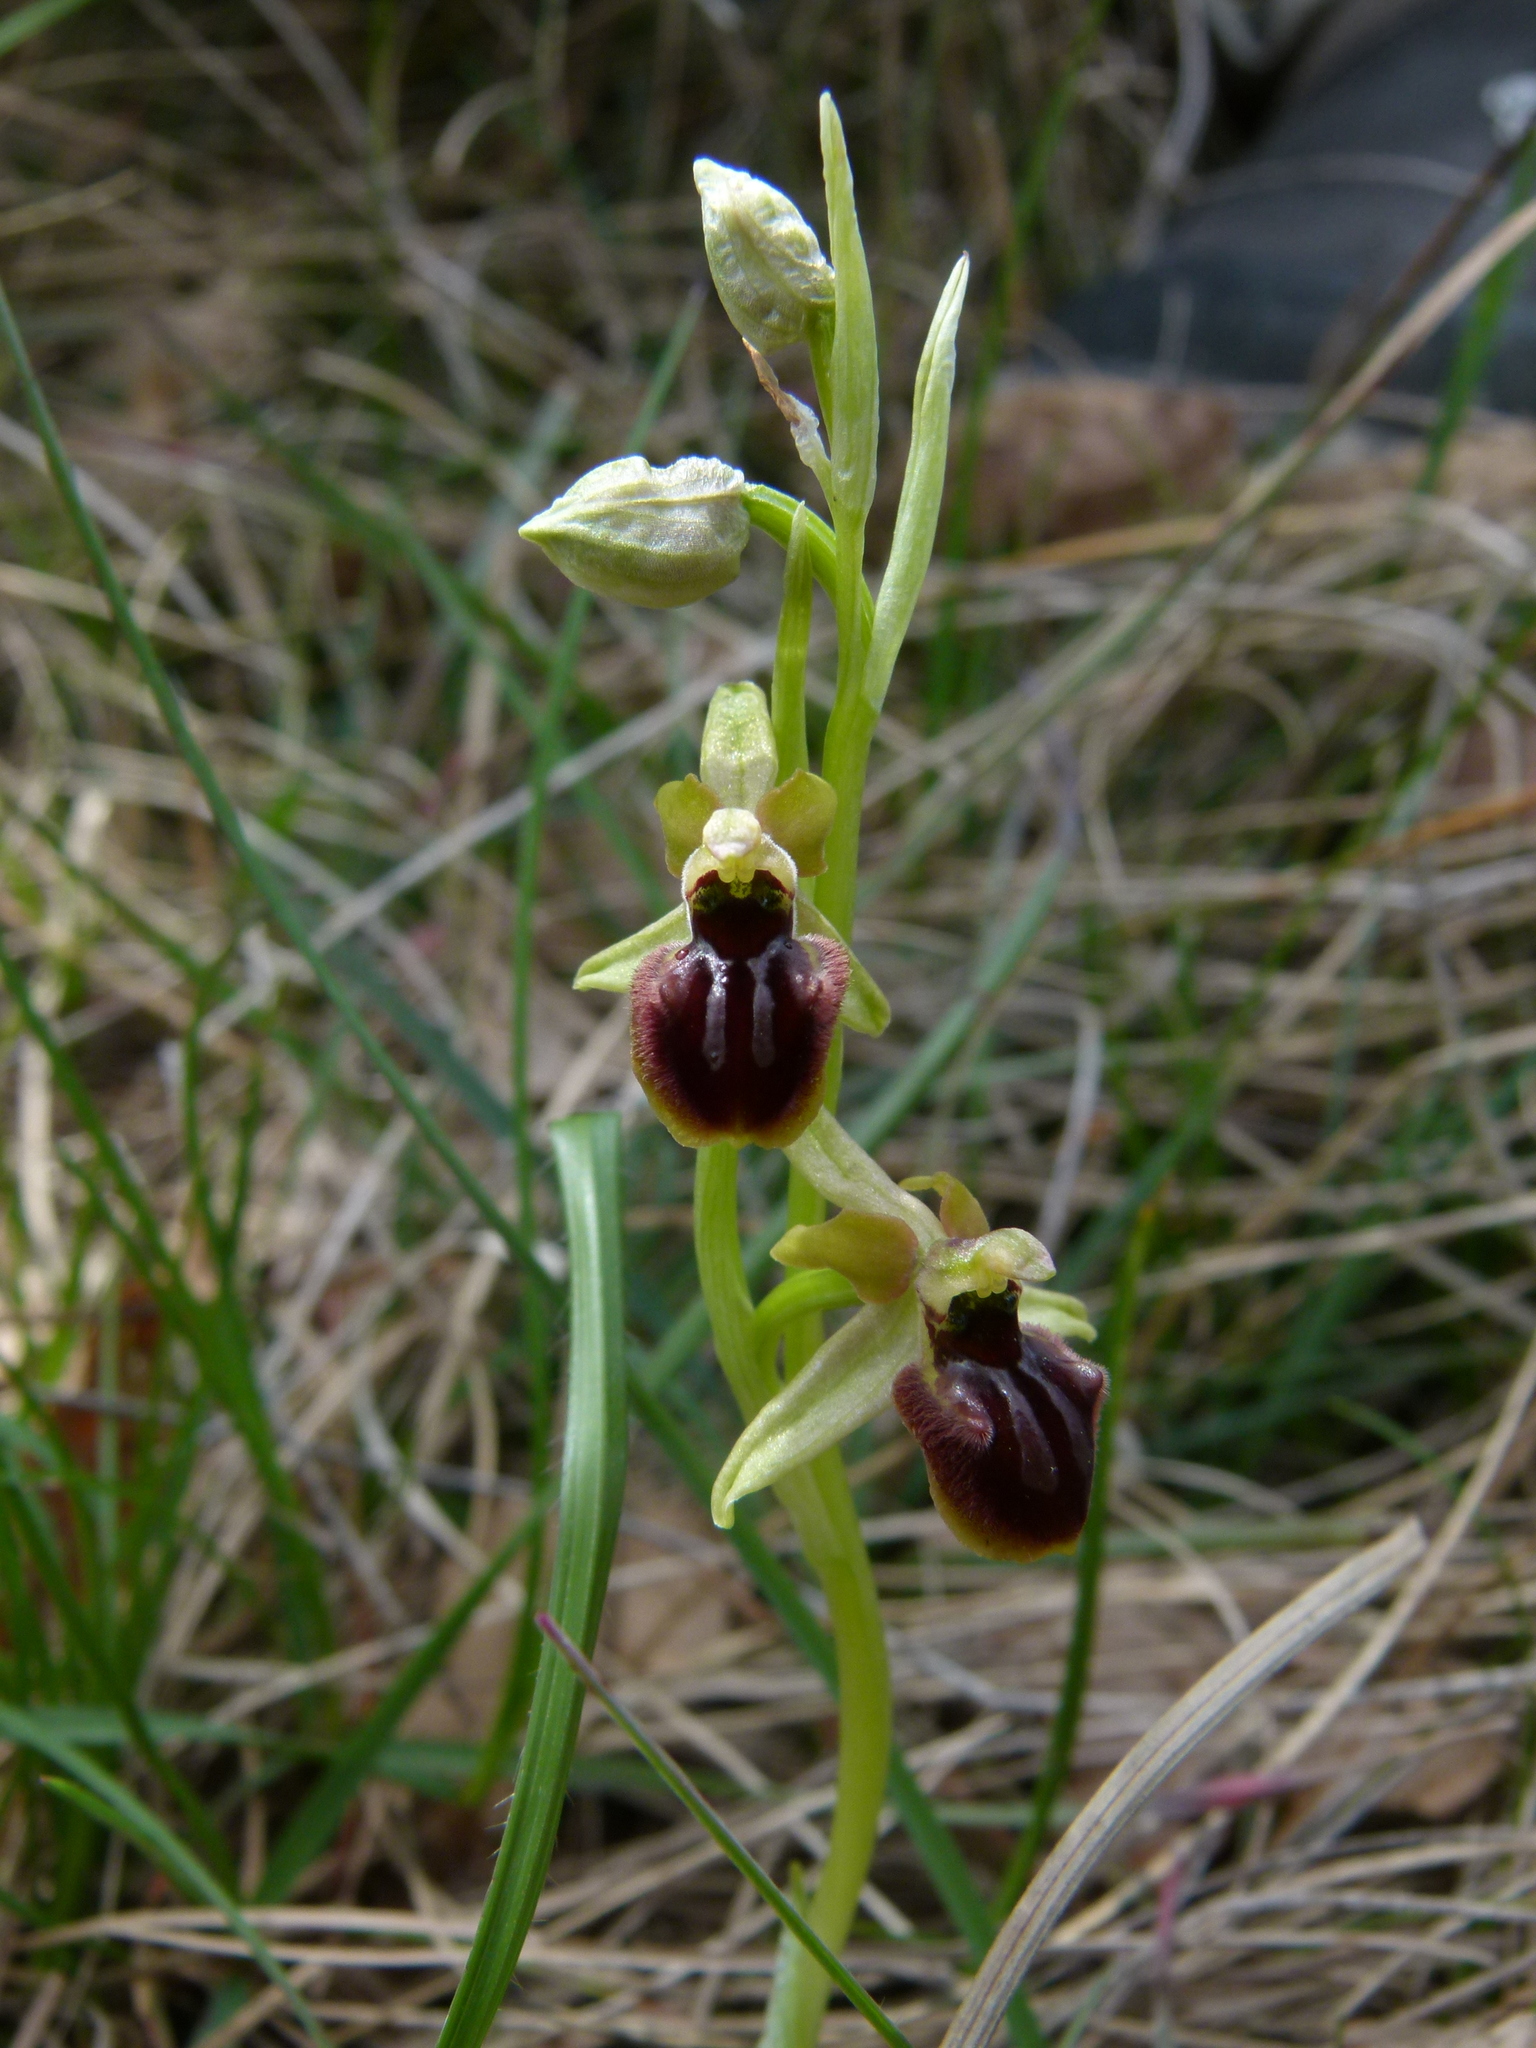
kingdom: Plantae
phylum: Tracheophyta
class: Liliopsida
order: Asparagales
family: Orchidaceae
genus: Ophrys
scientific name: Ophrys sphegodes
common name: Early spider-orchid
